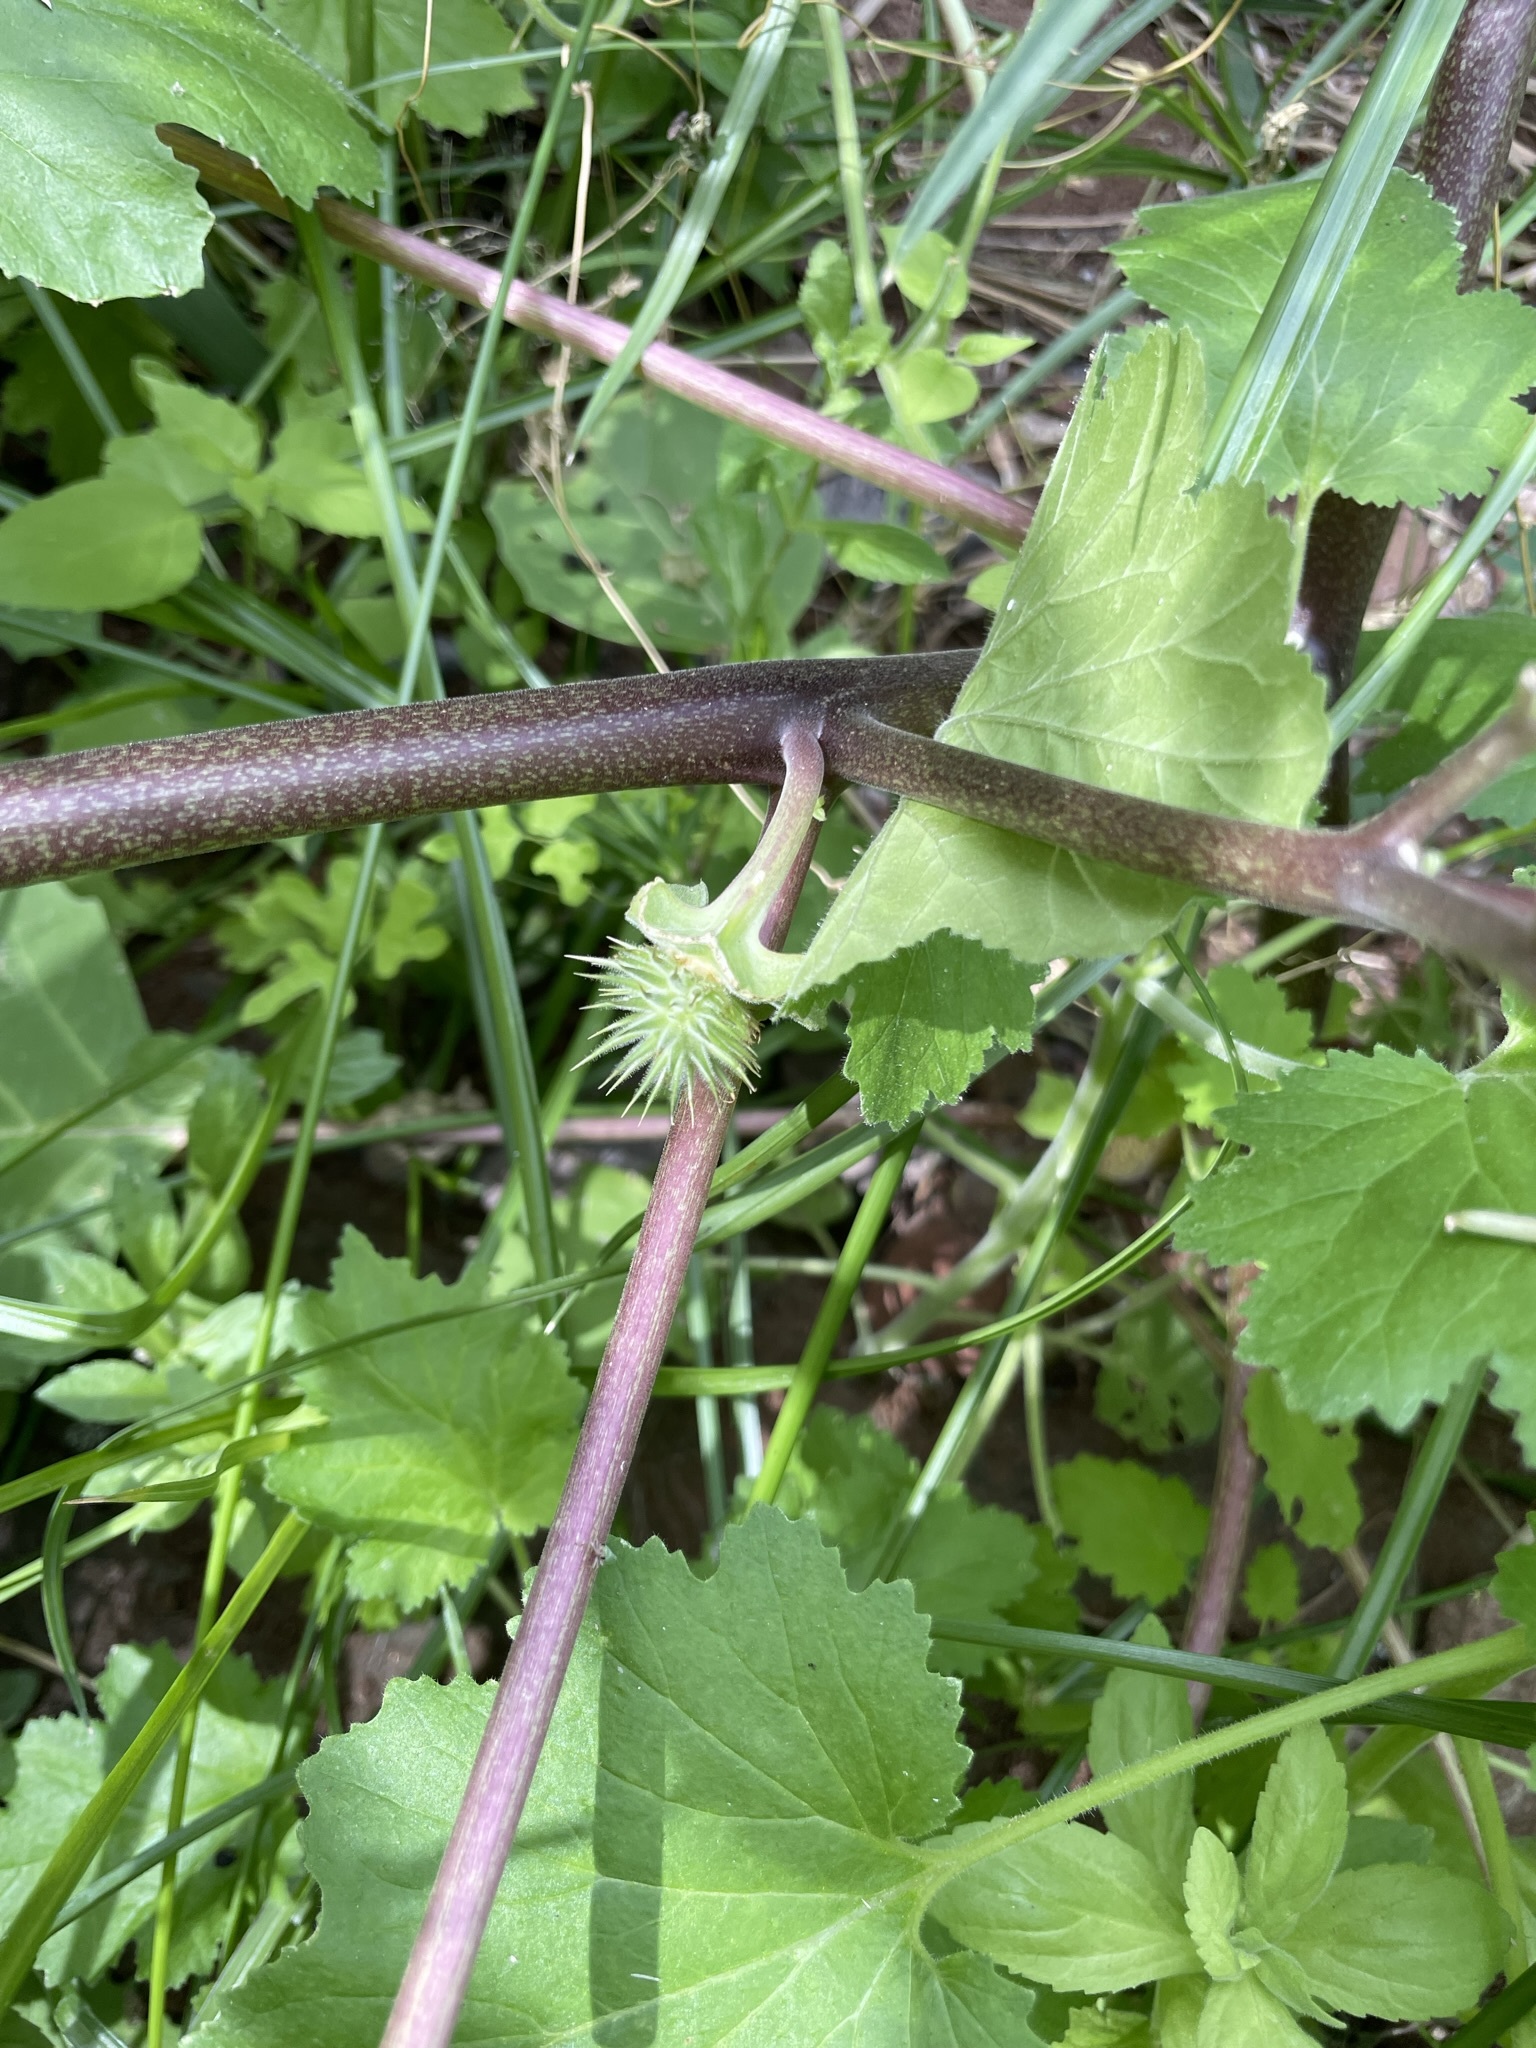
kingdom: Plantae
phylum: Tracheophyta
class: Magnoliopsida
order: Solanales
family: Solanaceae
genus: Datura
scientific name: Datura discolor
